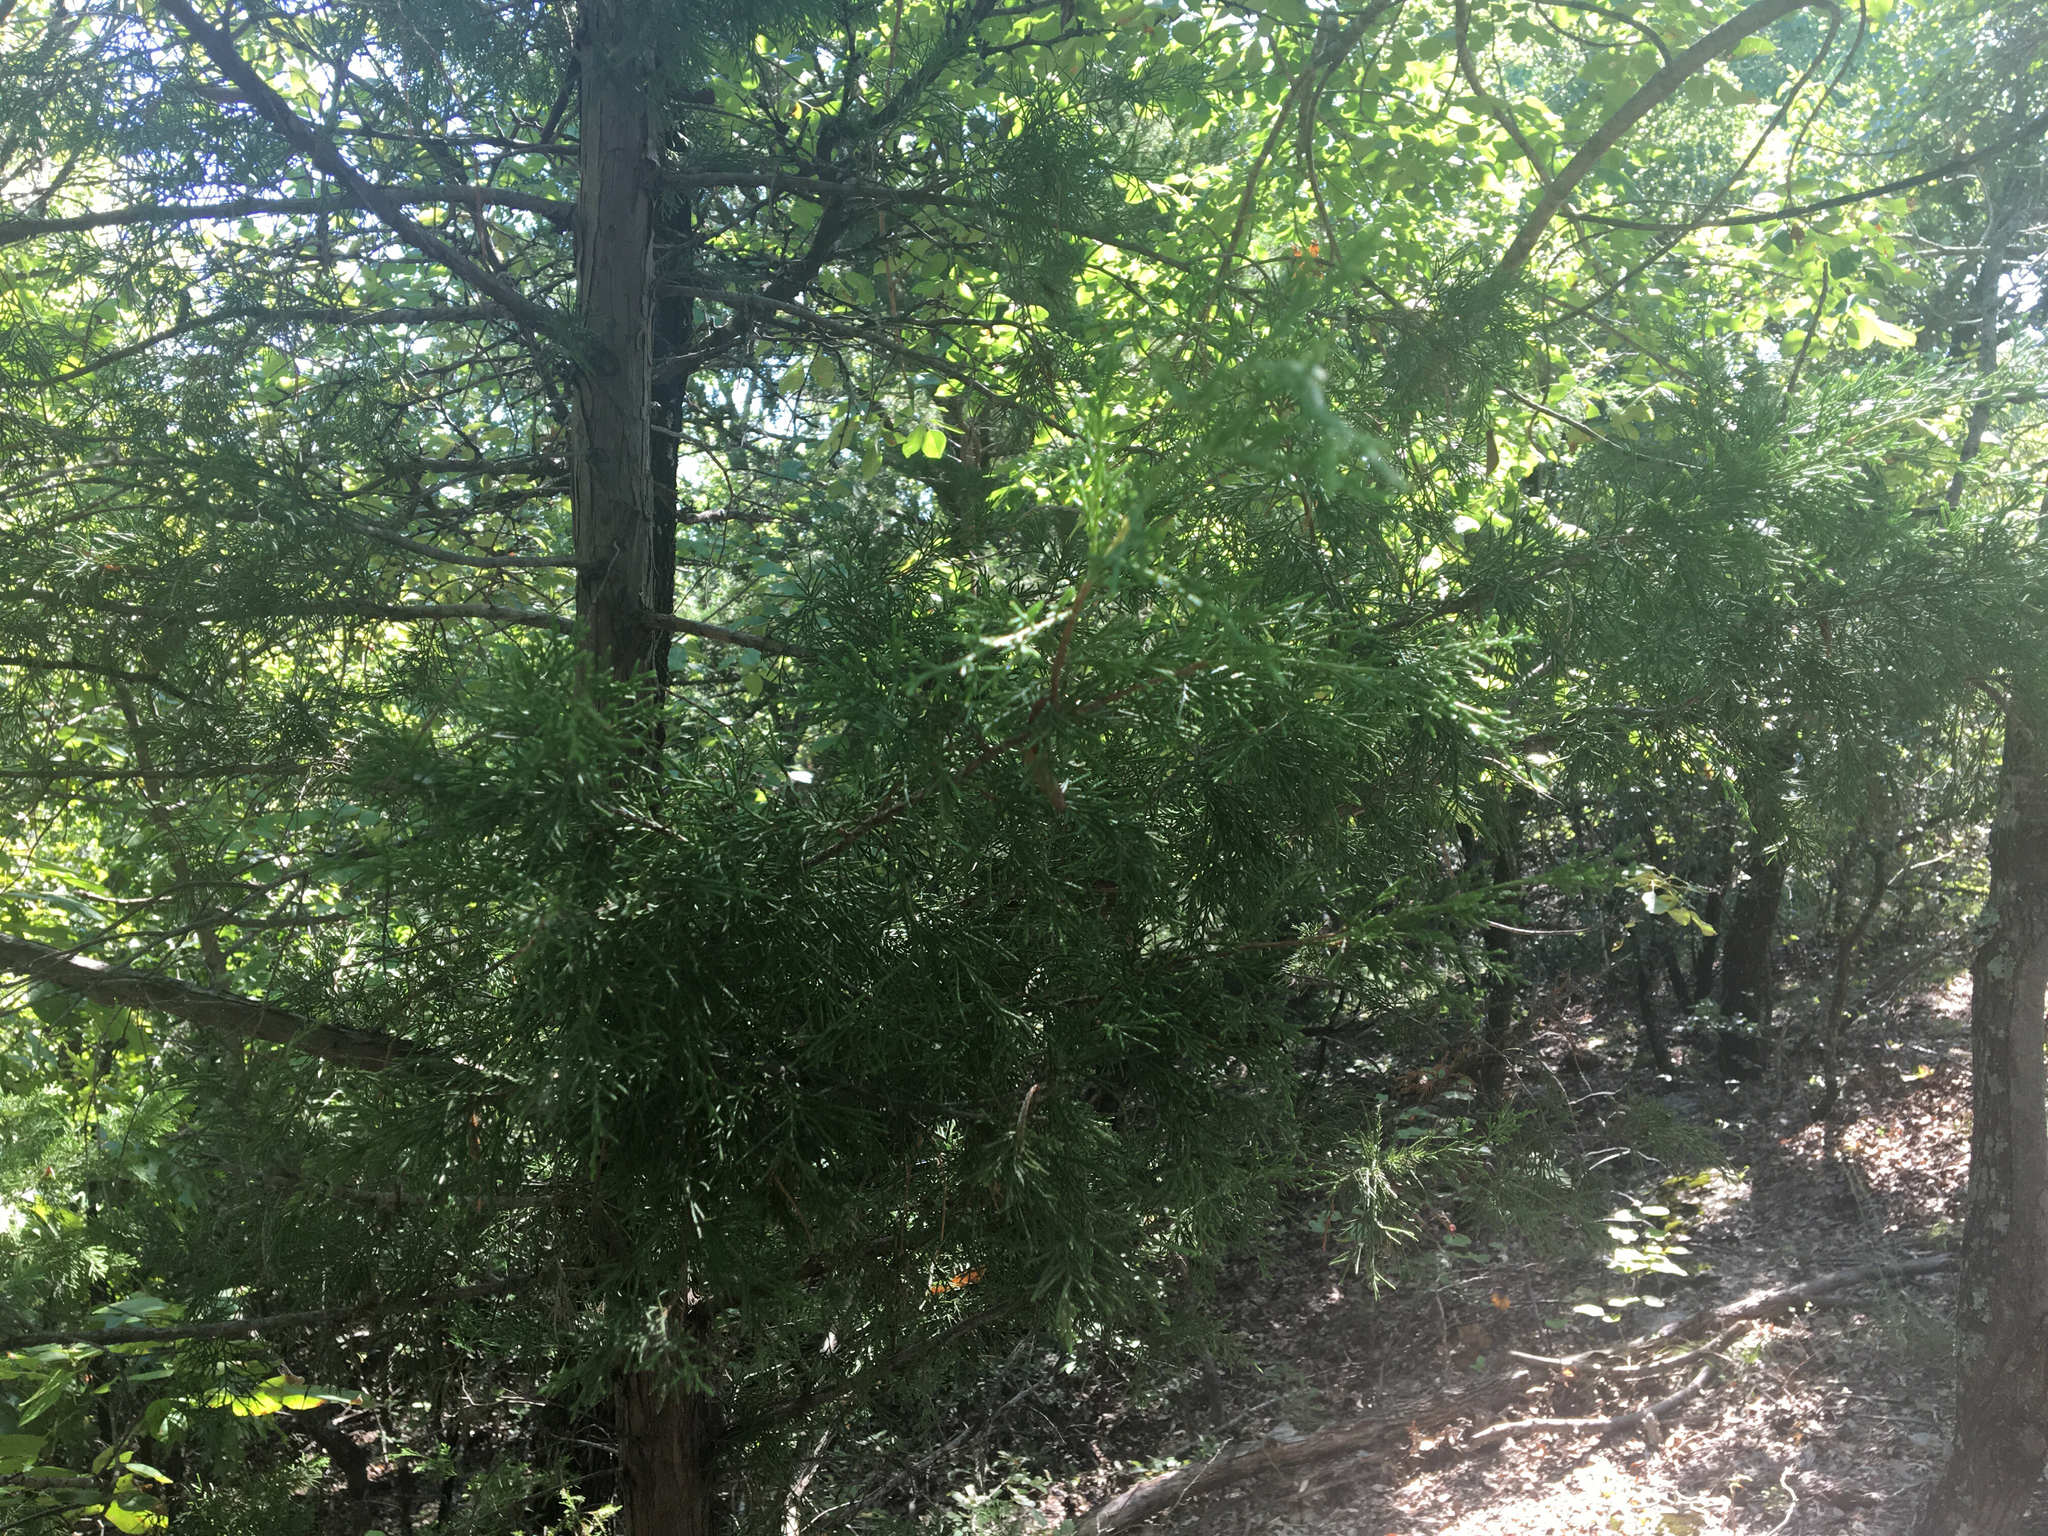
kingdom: Plantae
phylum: Tracheophyta
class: Pinopsida
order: Pinales
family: Cupressaceae
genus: Juniperus
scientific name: Juniperus virginiana
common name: Red juniper
